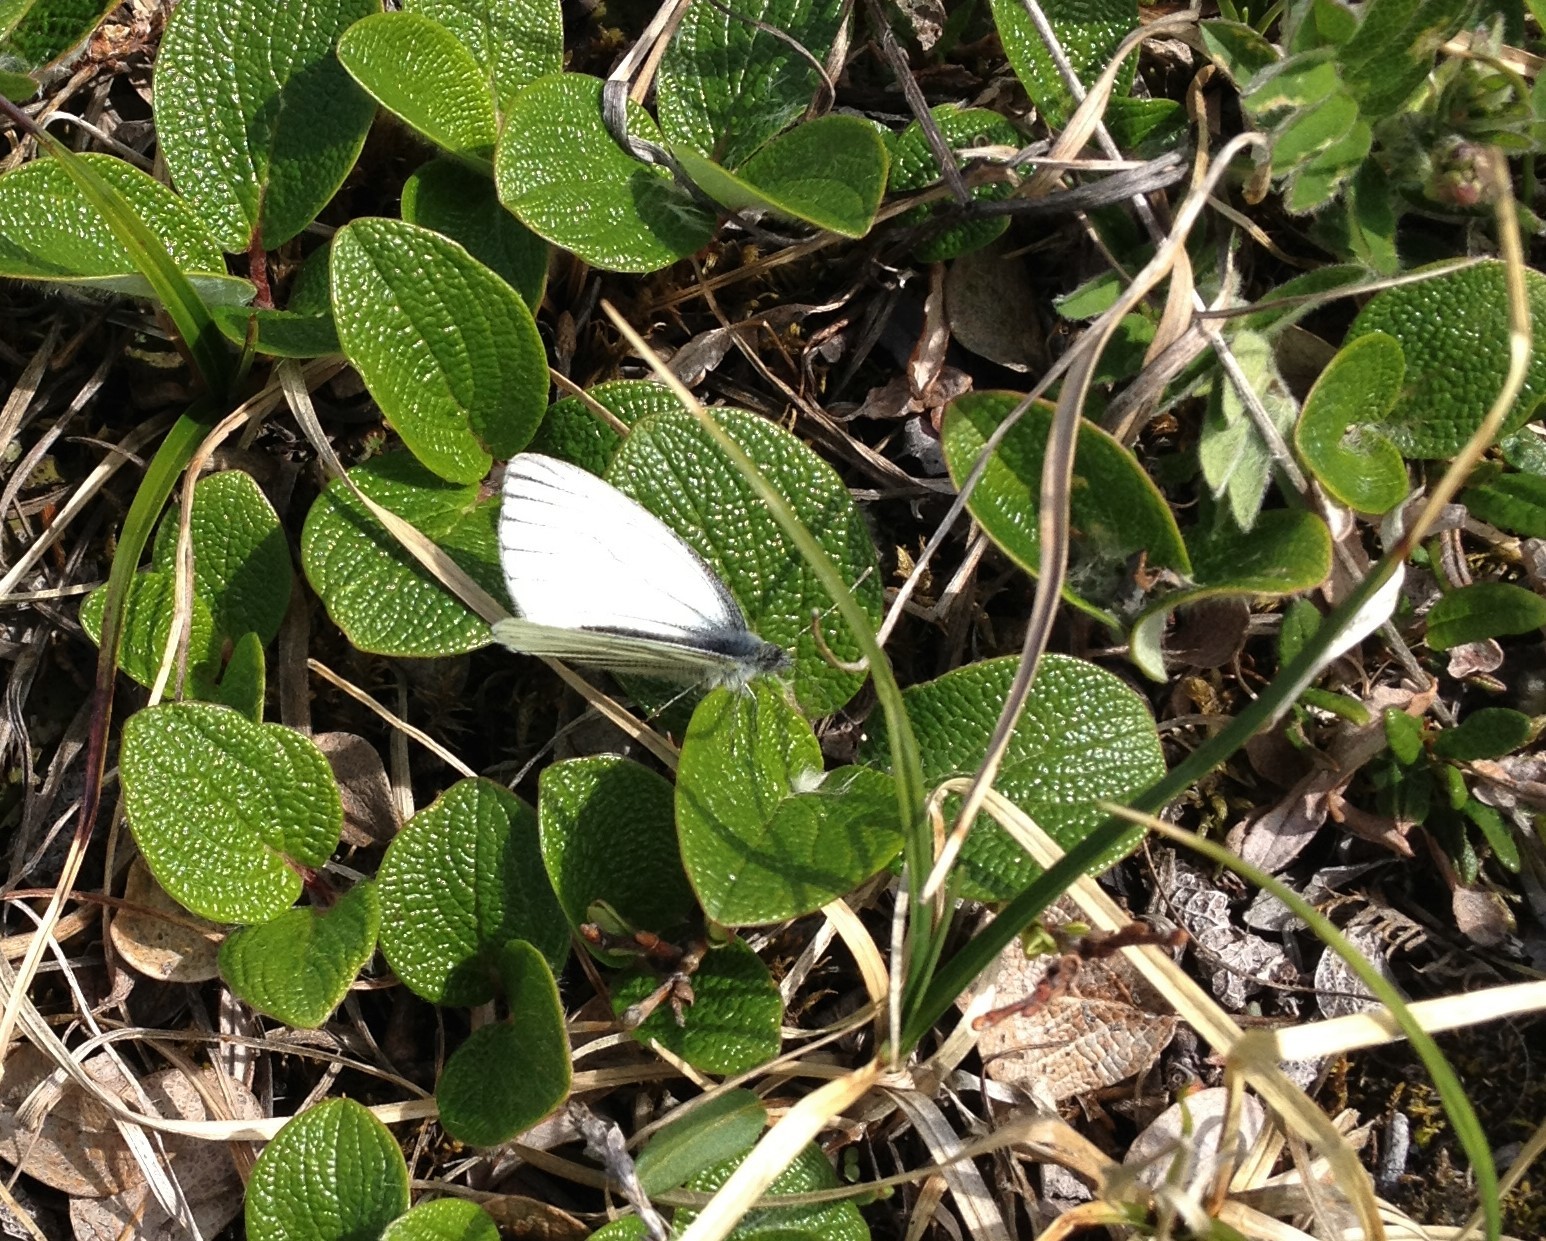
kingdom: Animalia
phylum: Arthropoda
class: Insecta
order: Lepidoptera
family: Pieridae
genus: Pieris
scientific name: Pieris angelika
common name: Arctic white
